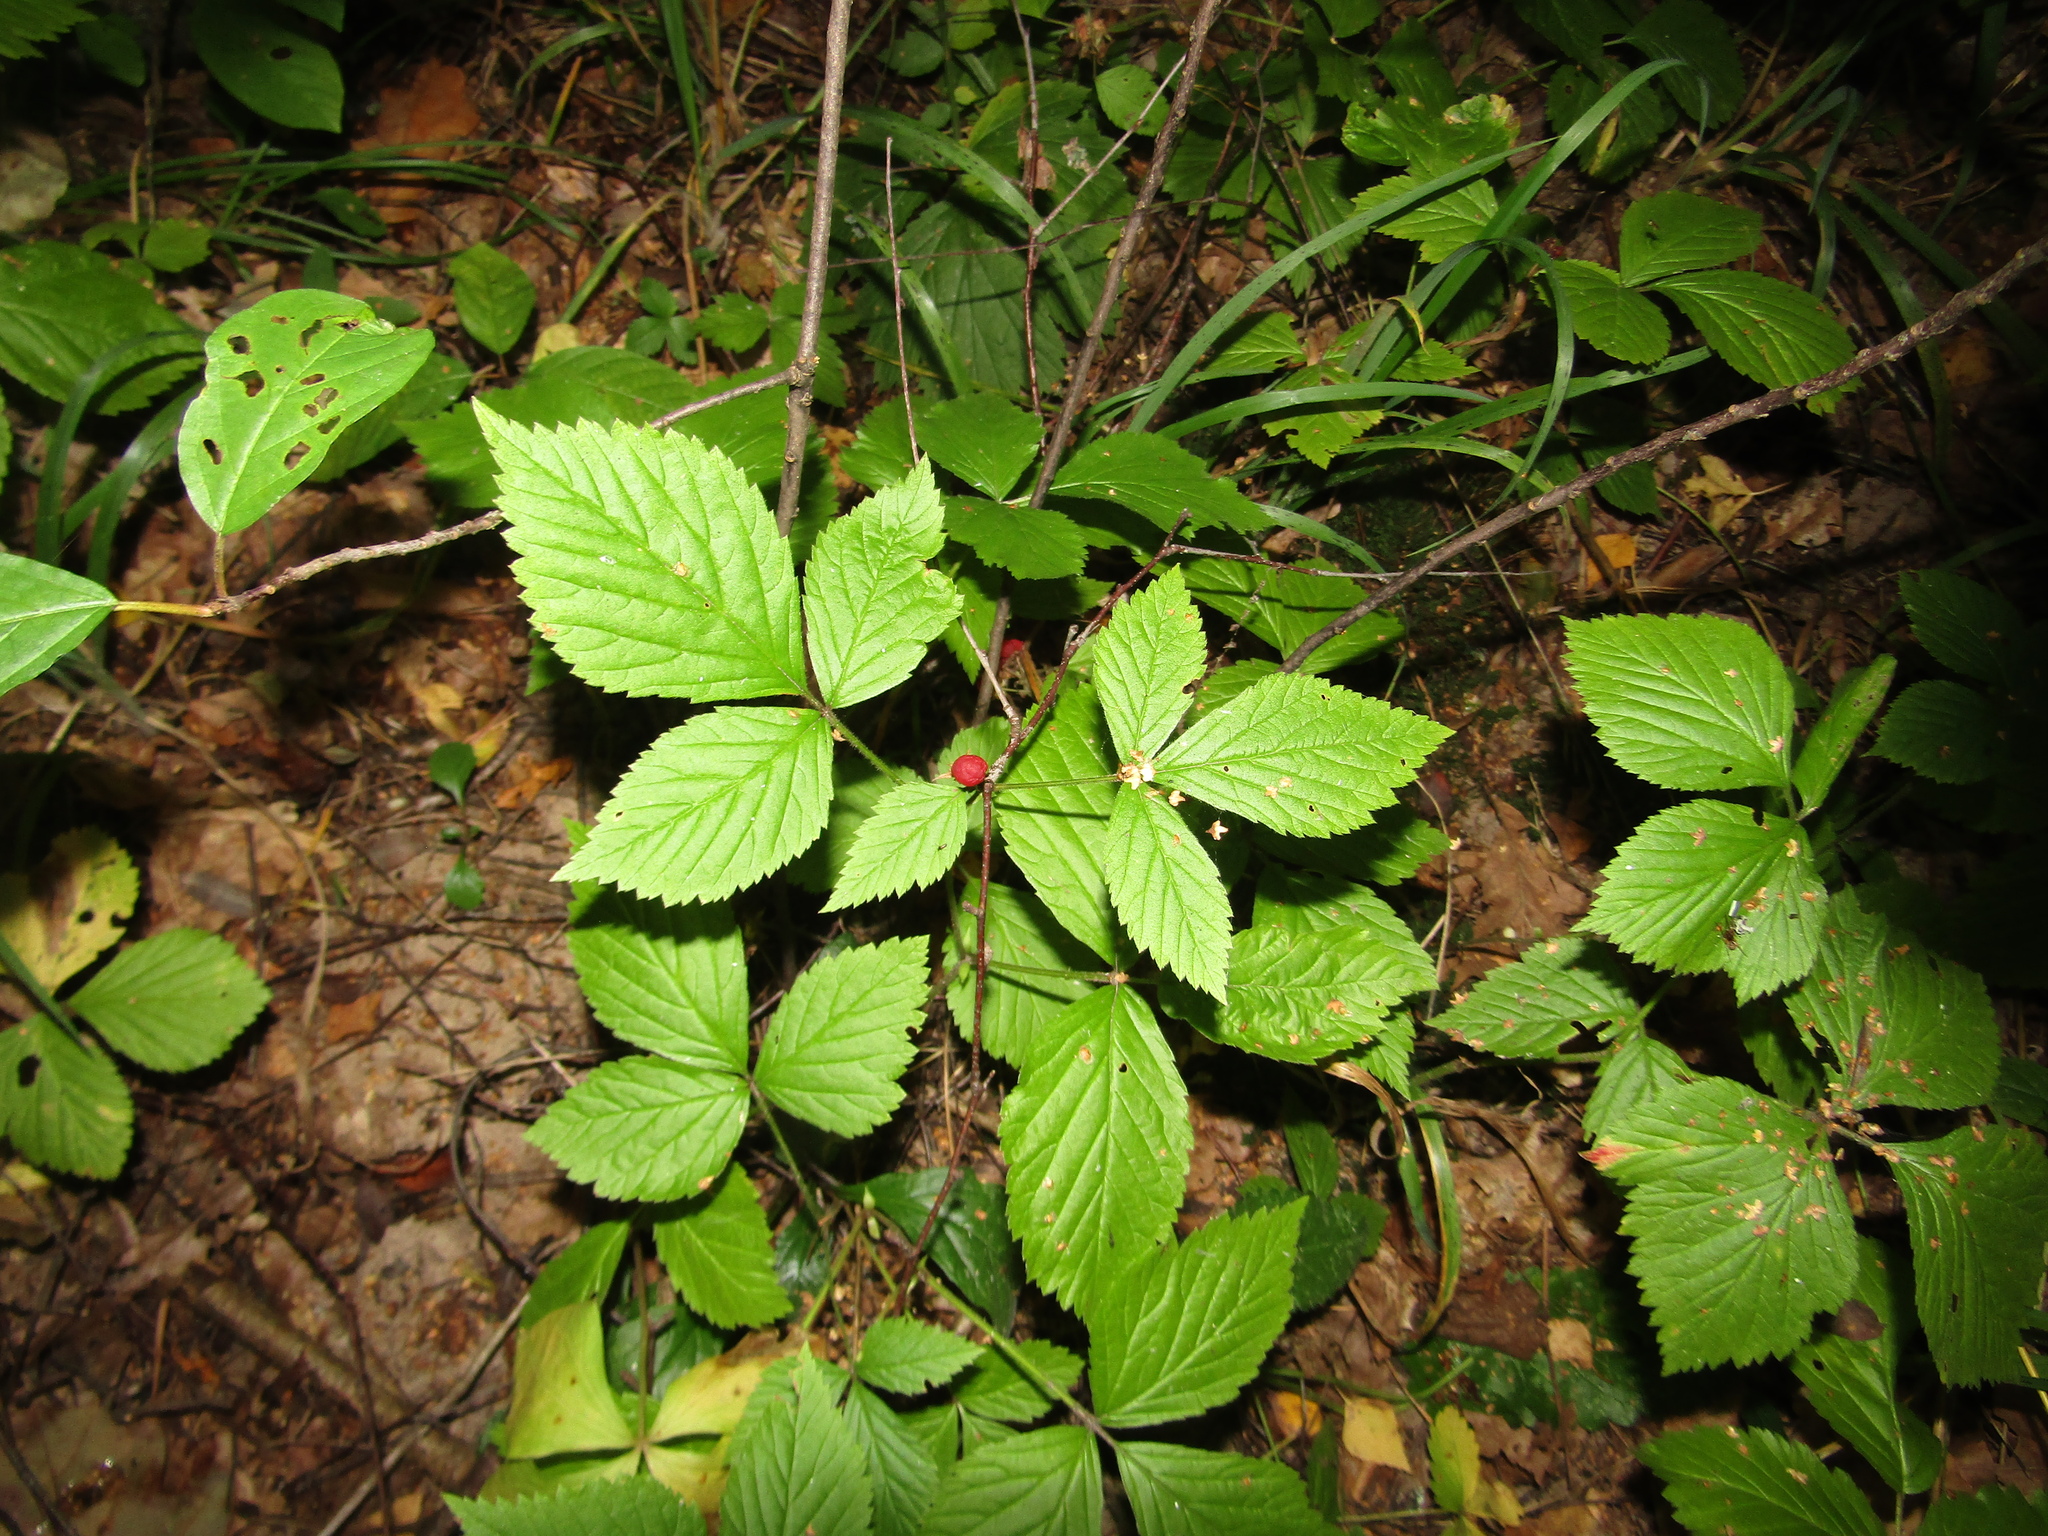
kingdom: Plantae
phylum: Tracheophyta
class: Magnoliopsida
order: Rosales
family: Rosaceae
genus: Rubus
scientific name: Rubus saxatilis
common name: Stone bramble
